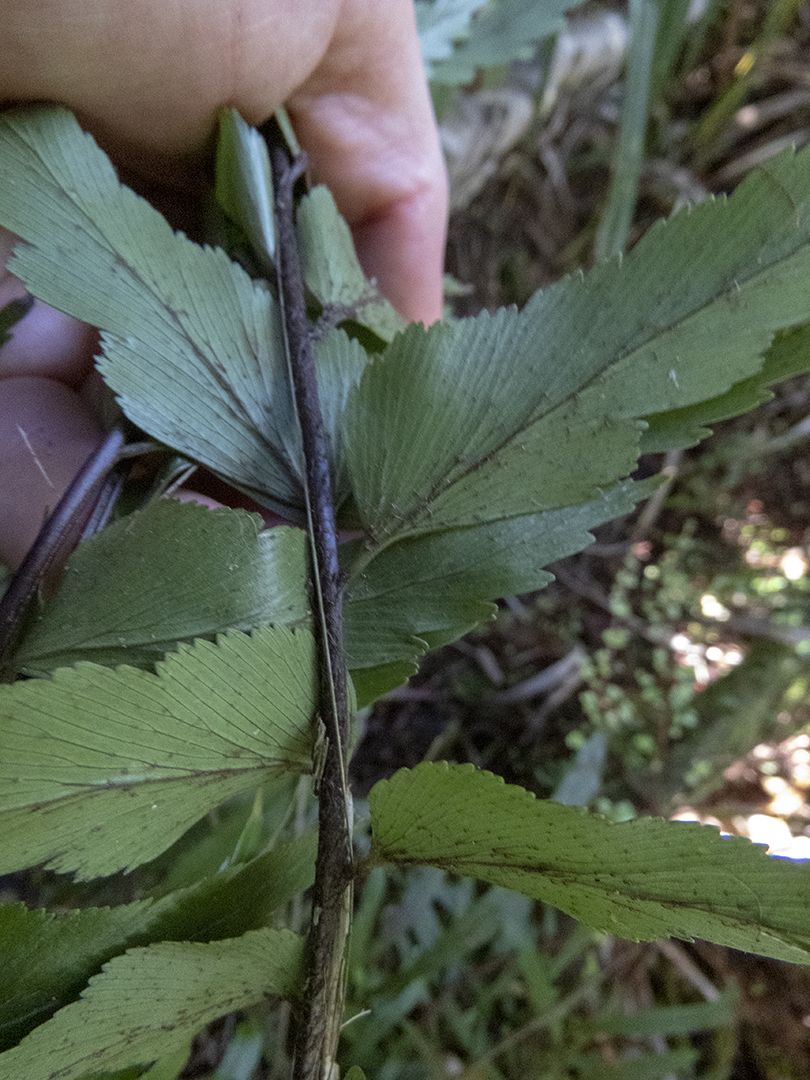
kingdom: Plantae
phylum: Tracheophyta
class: Polypodiopsida
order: Polypodiales
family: Aspleniaceae
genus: Asplenium
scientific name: Asplenium polyodon
